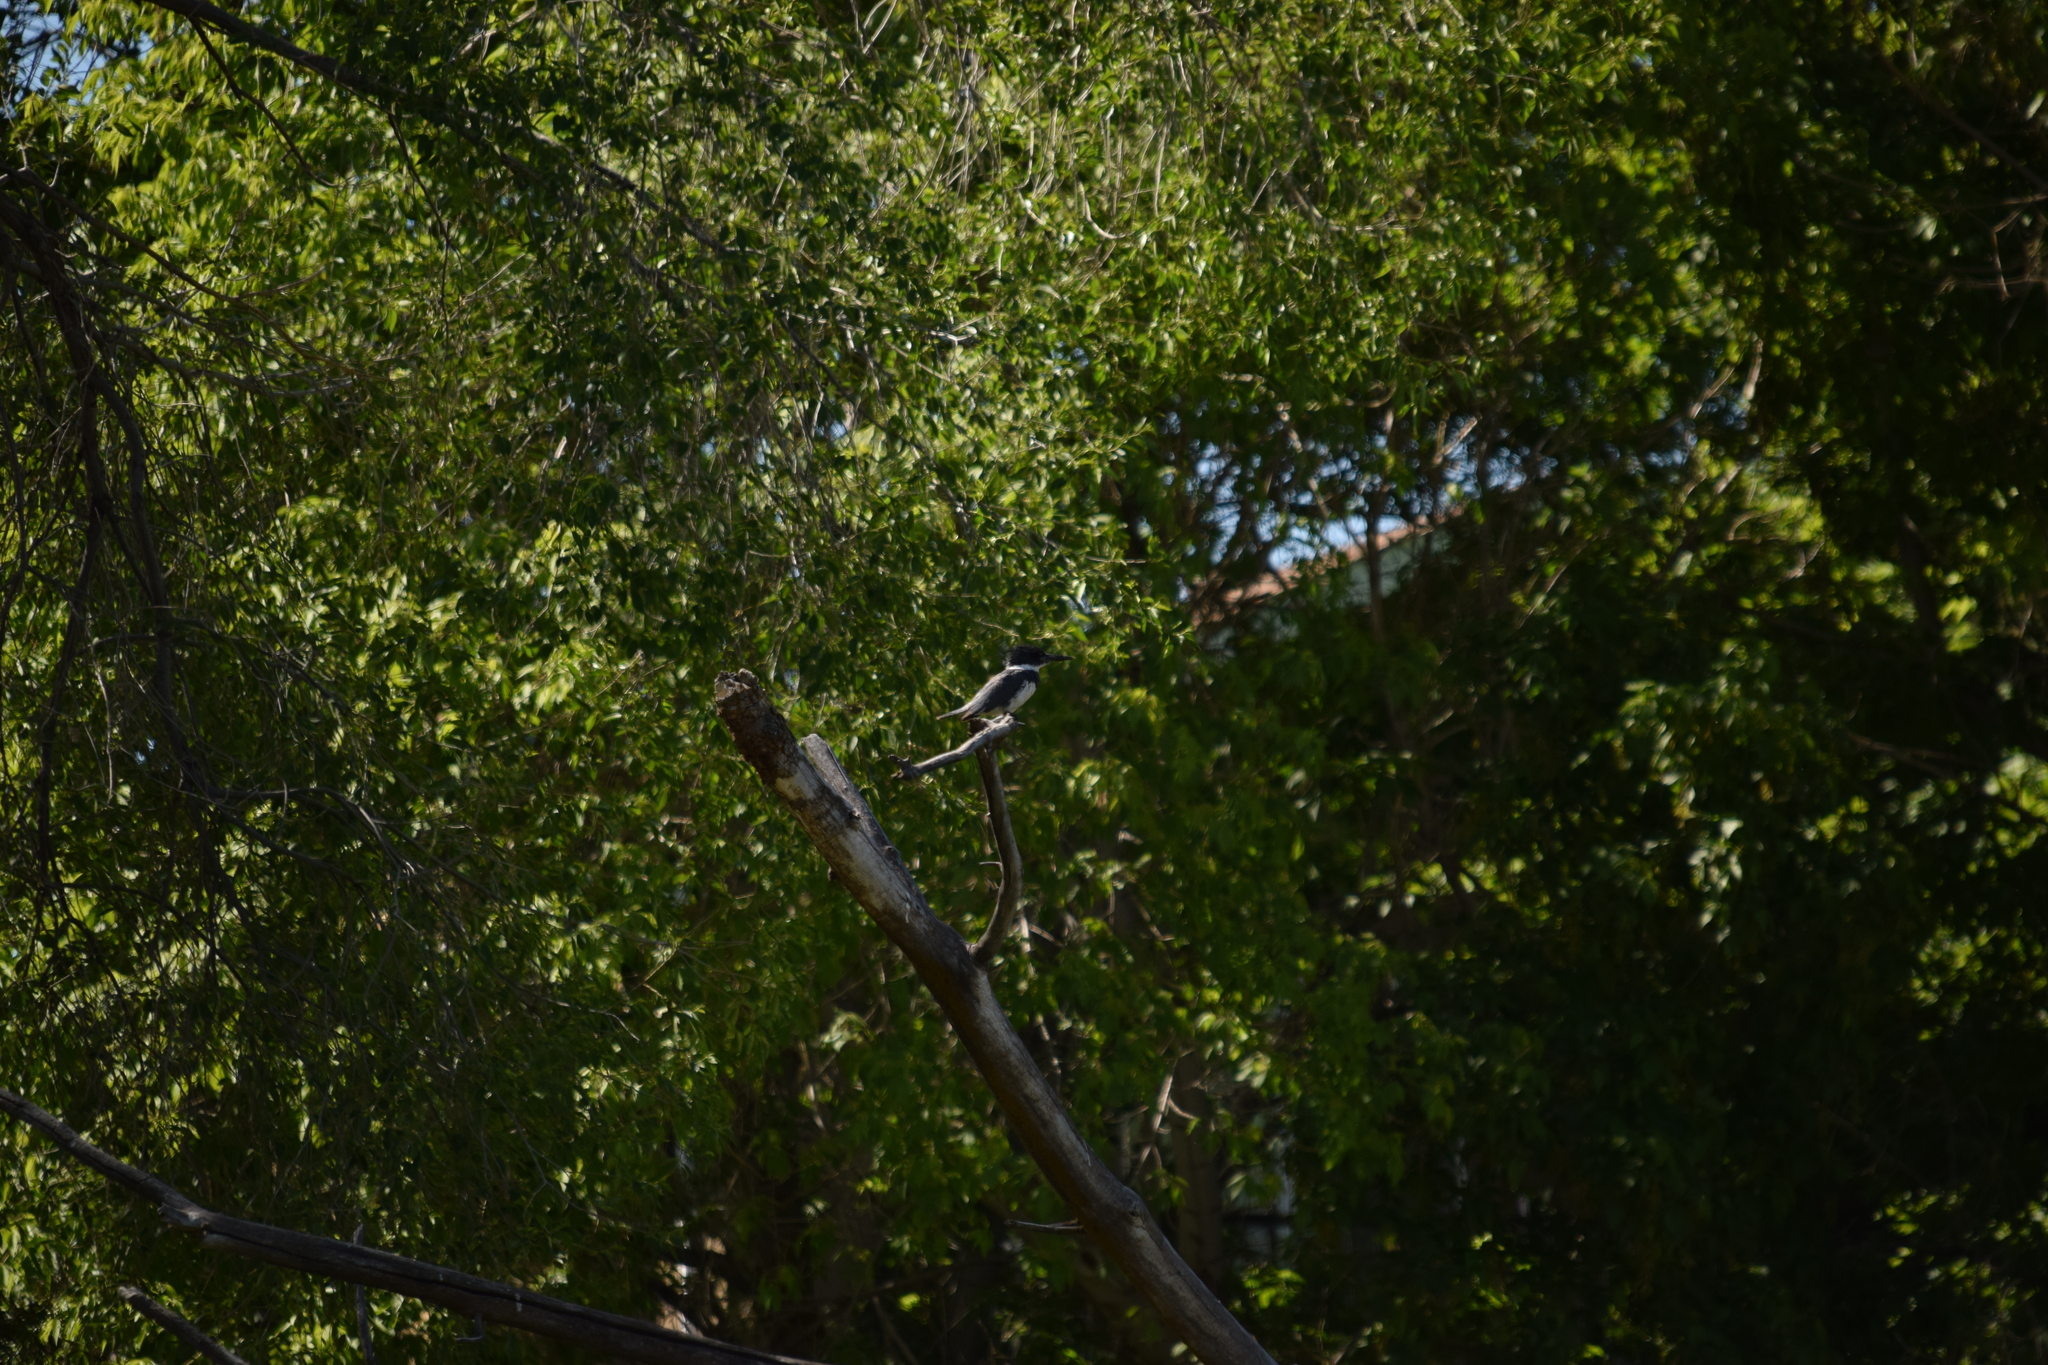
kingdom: Animalia
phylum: Chordata
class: Aves
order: Coraciiformes
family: Alcedinidae
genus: Megaceryle
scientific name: Megaceryle alcyon
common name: Belted kingfisher
